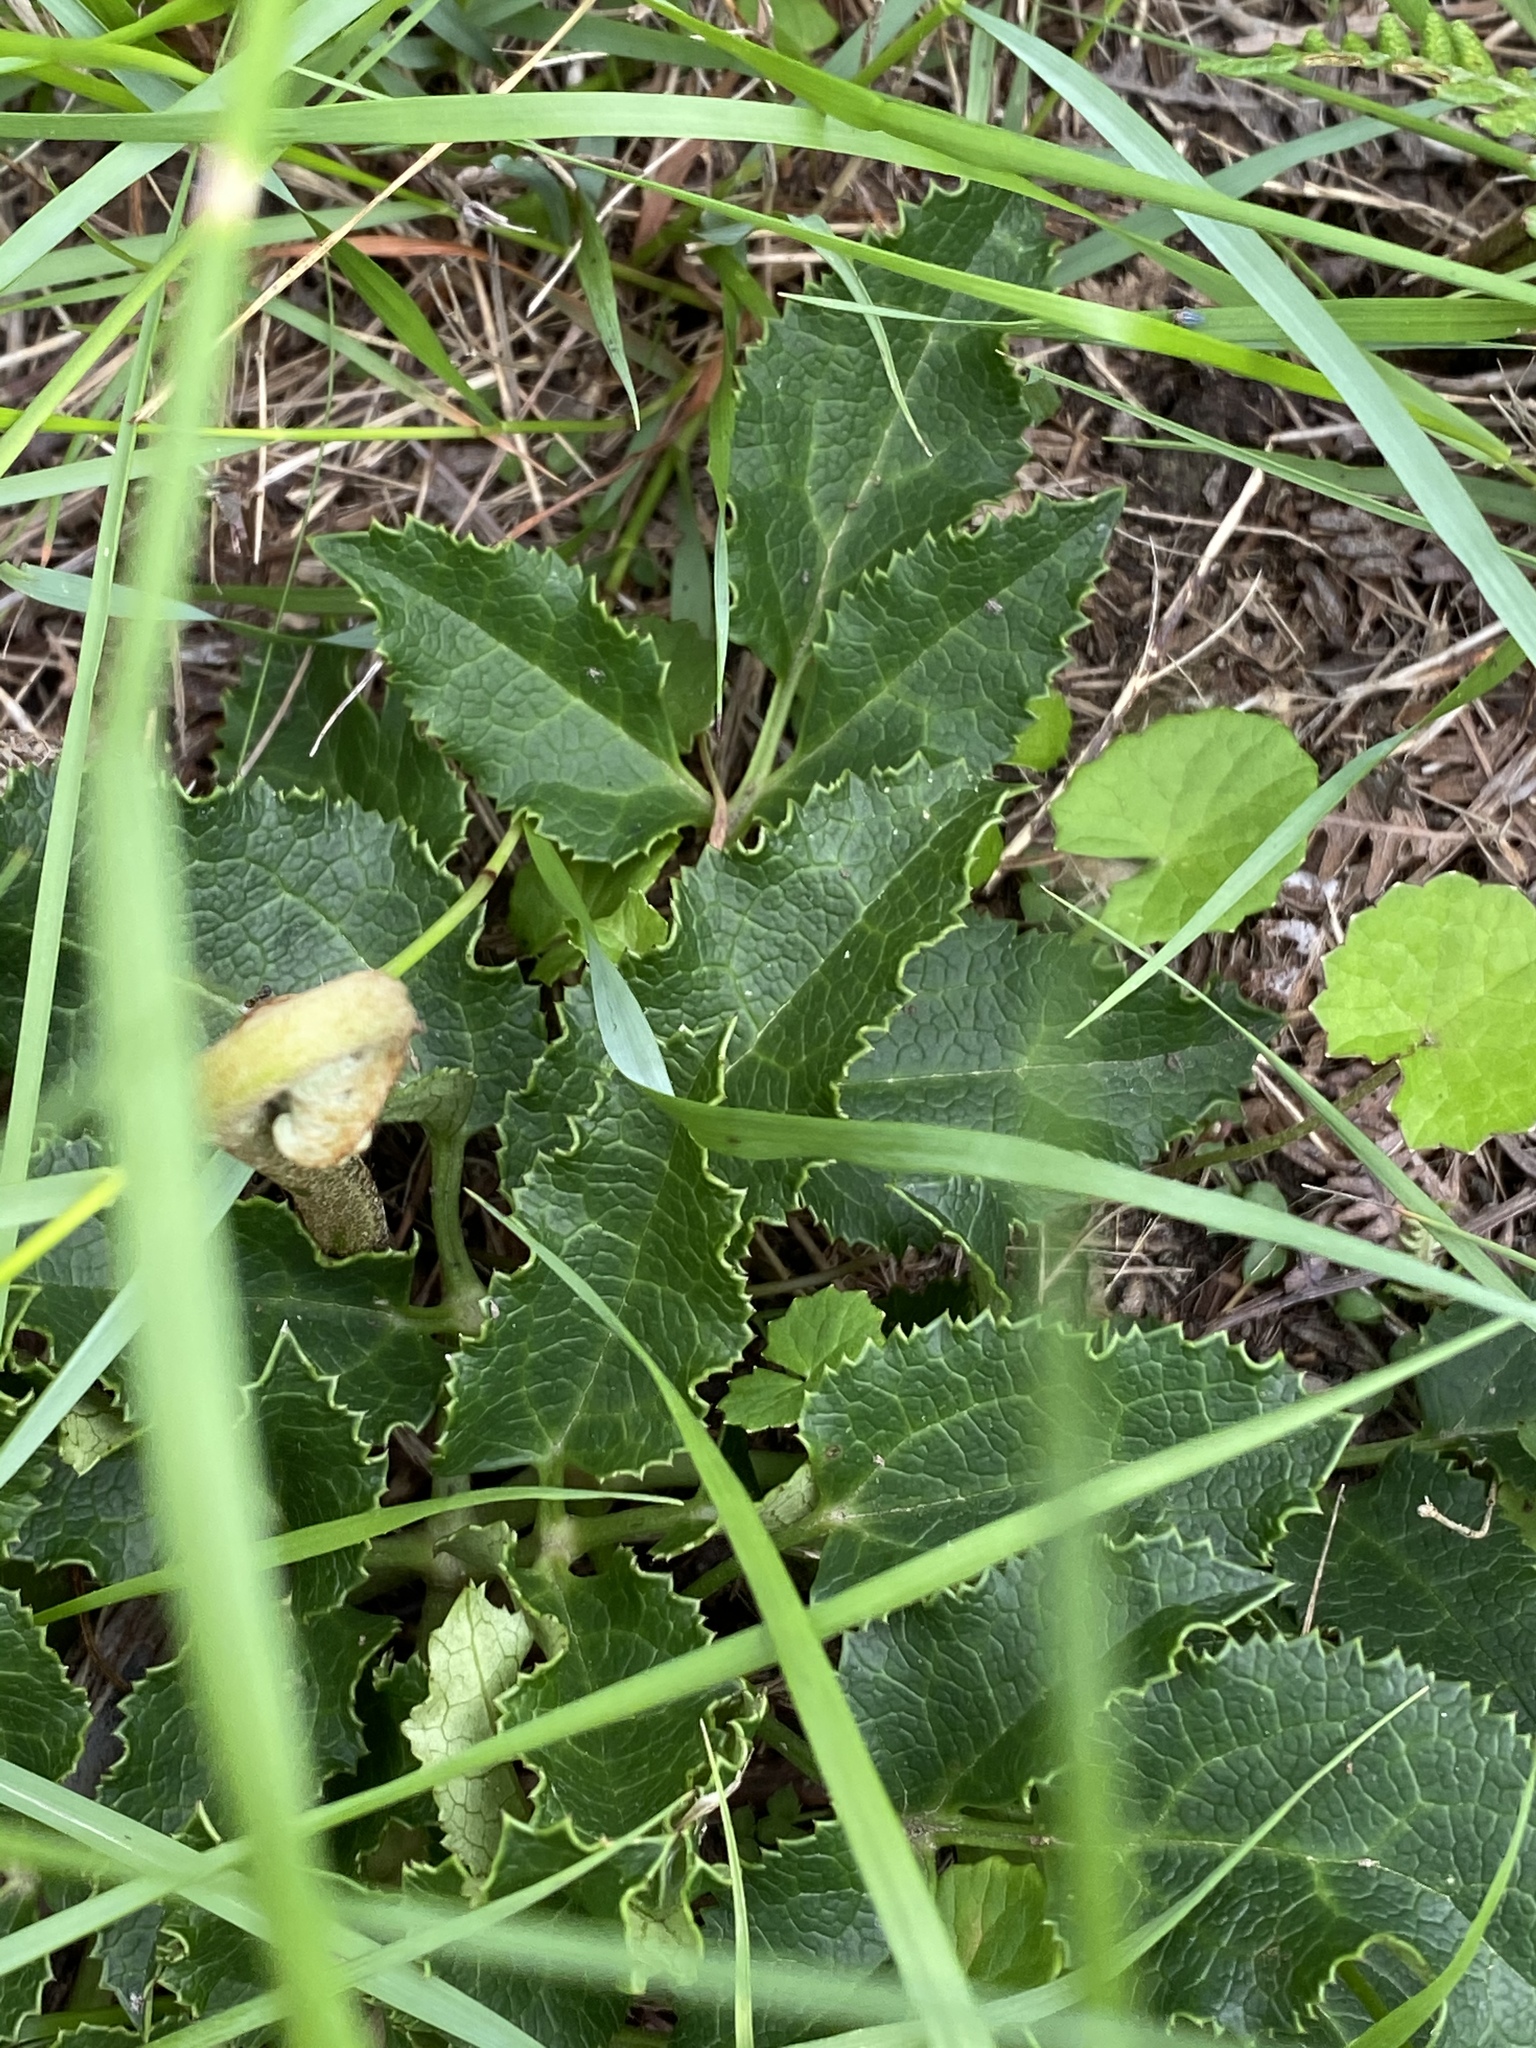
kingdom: Plantae
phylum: Tracheophyta
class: Magnoliopsida
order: Ranunculales
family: Ranunculaceae
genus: Knowltonia
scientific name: Knowltonia vesicatoria
